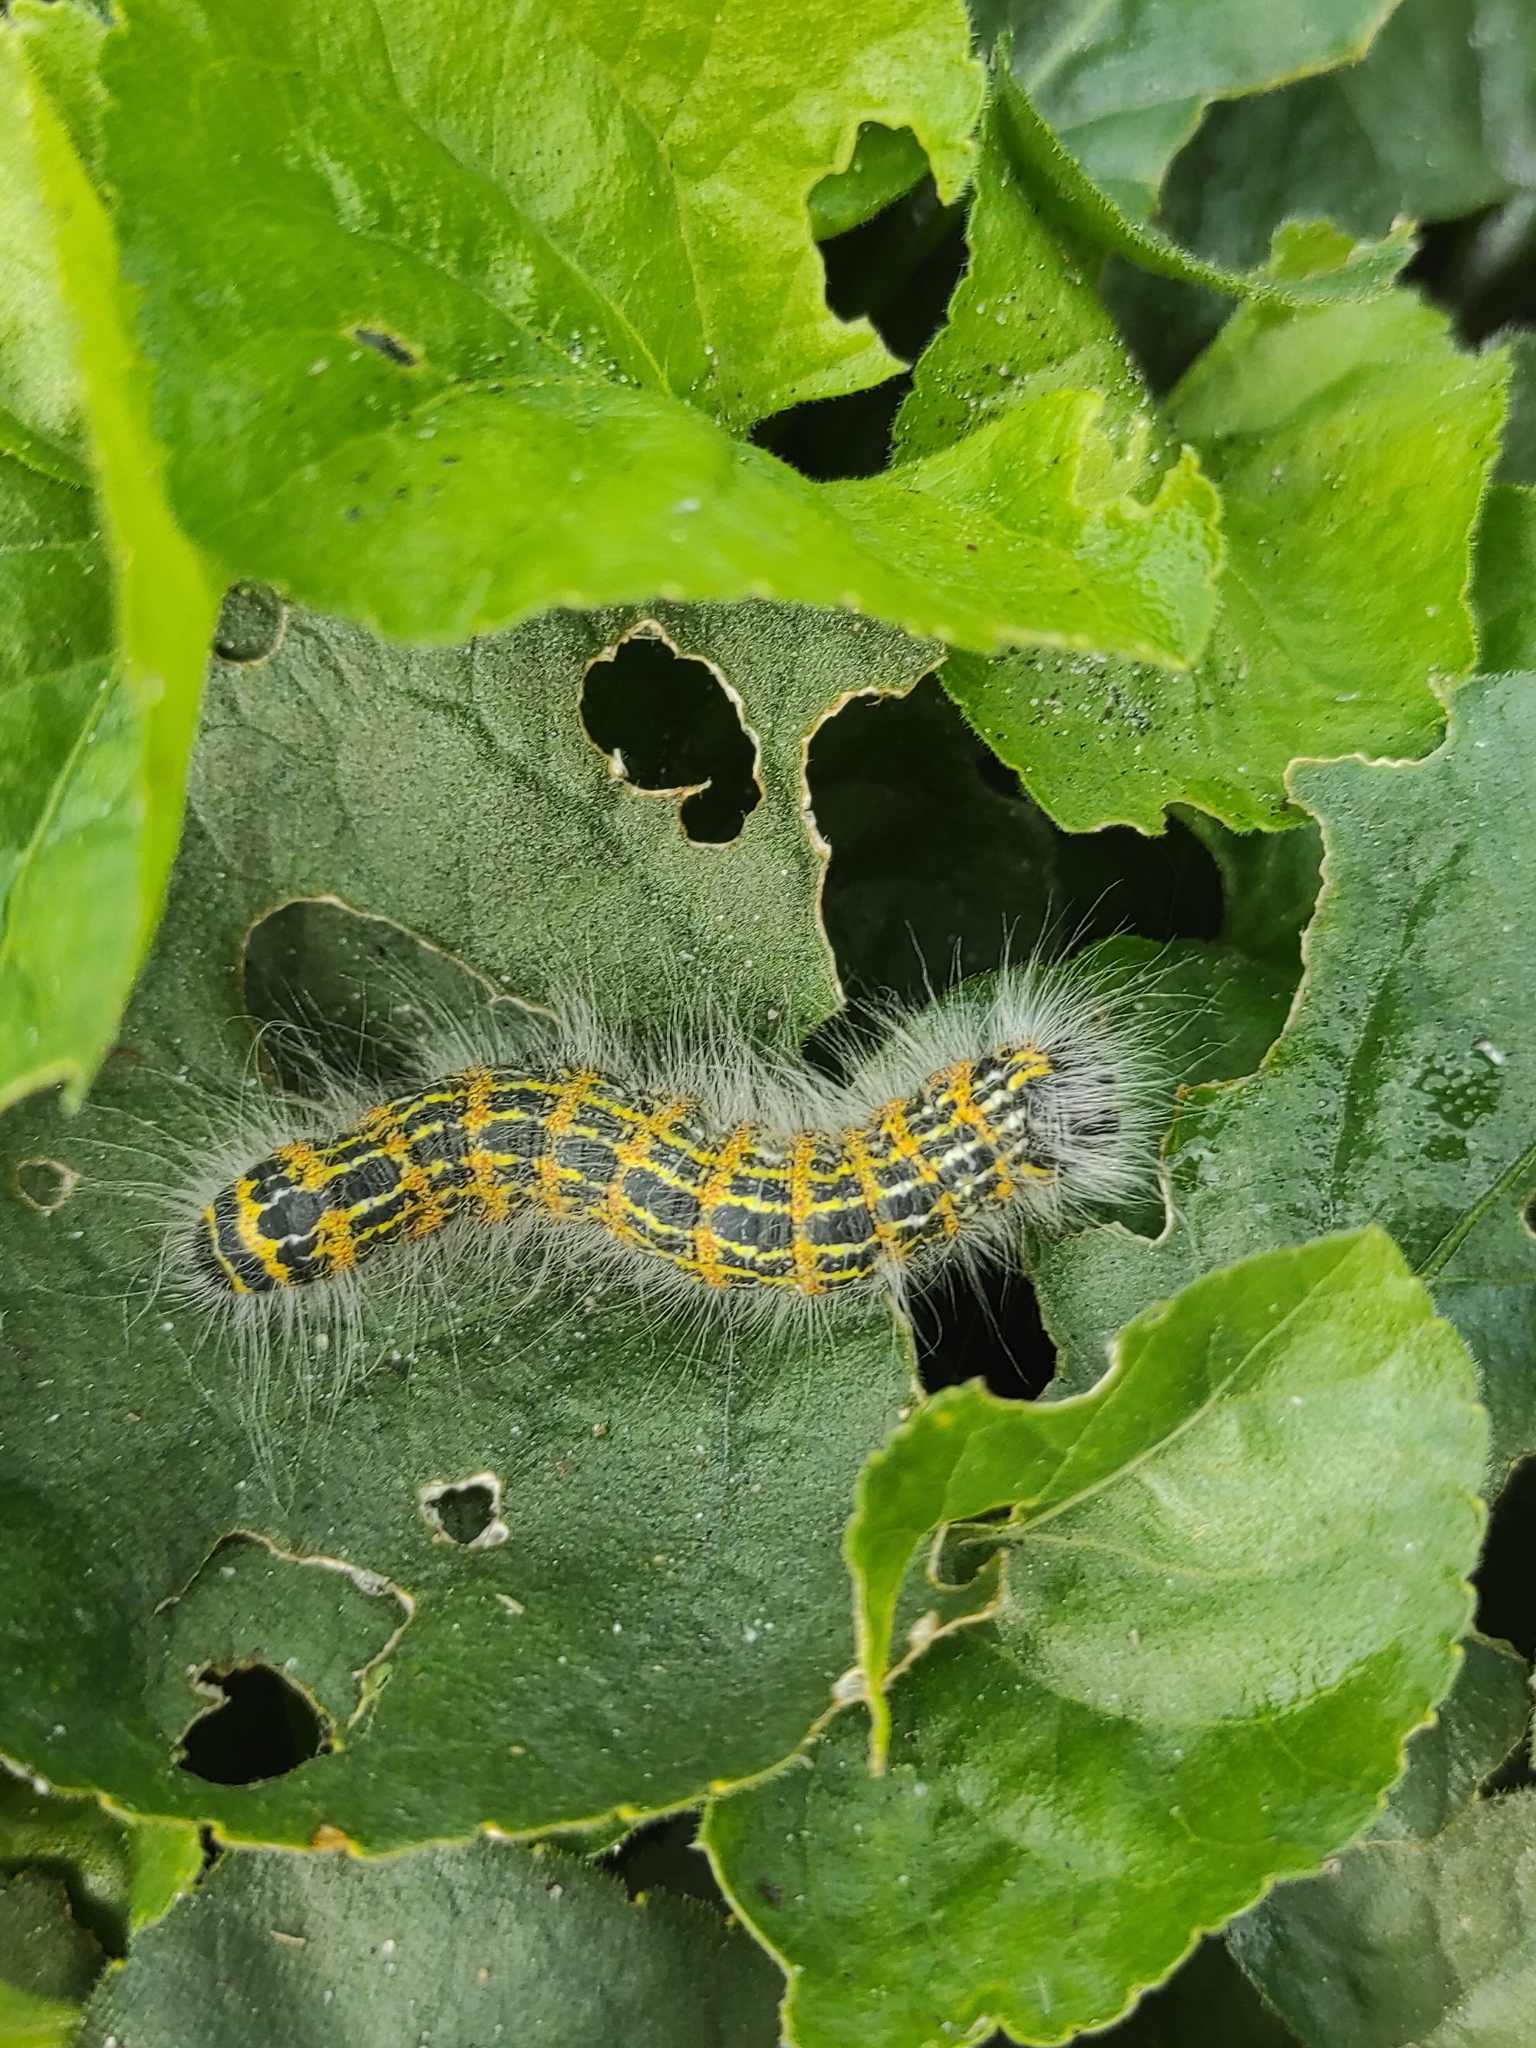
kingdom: Animalia
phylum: Arthropoda
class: Insecta
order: Lepidoptera
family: Notodontidae
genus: Phalera
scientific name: Phalera bucephala
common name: Buff-tip
